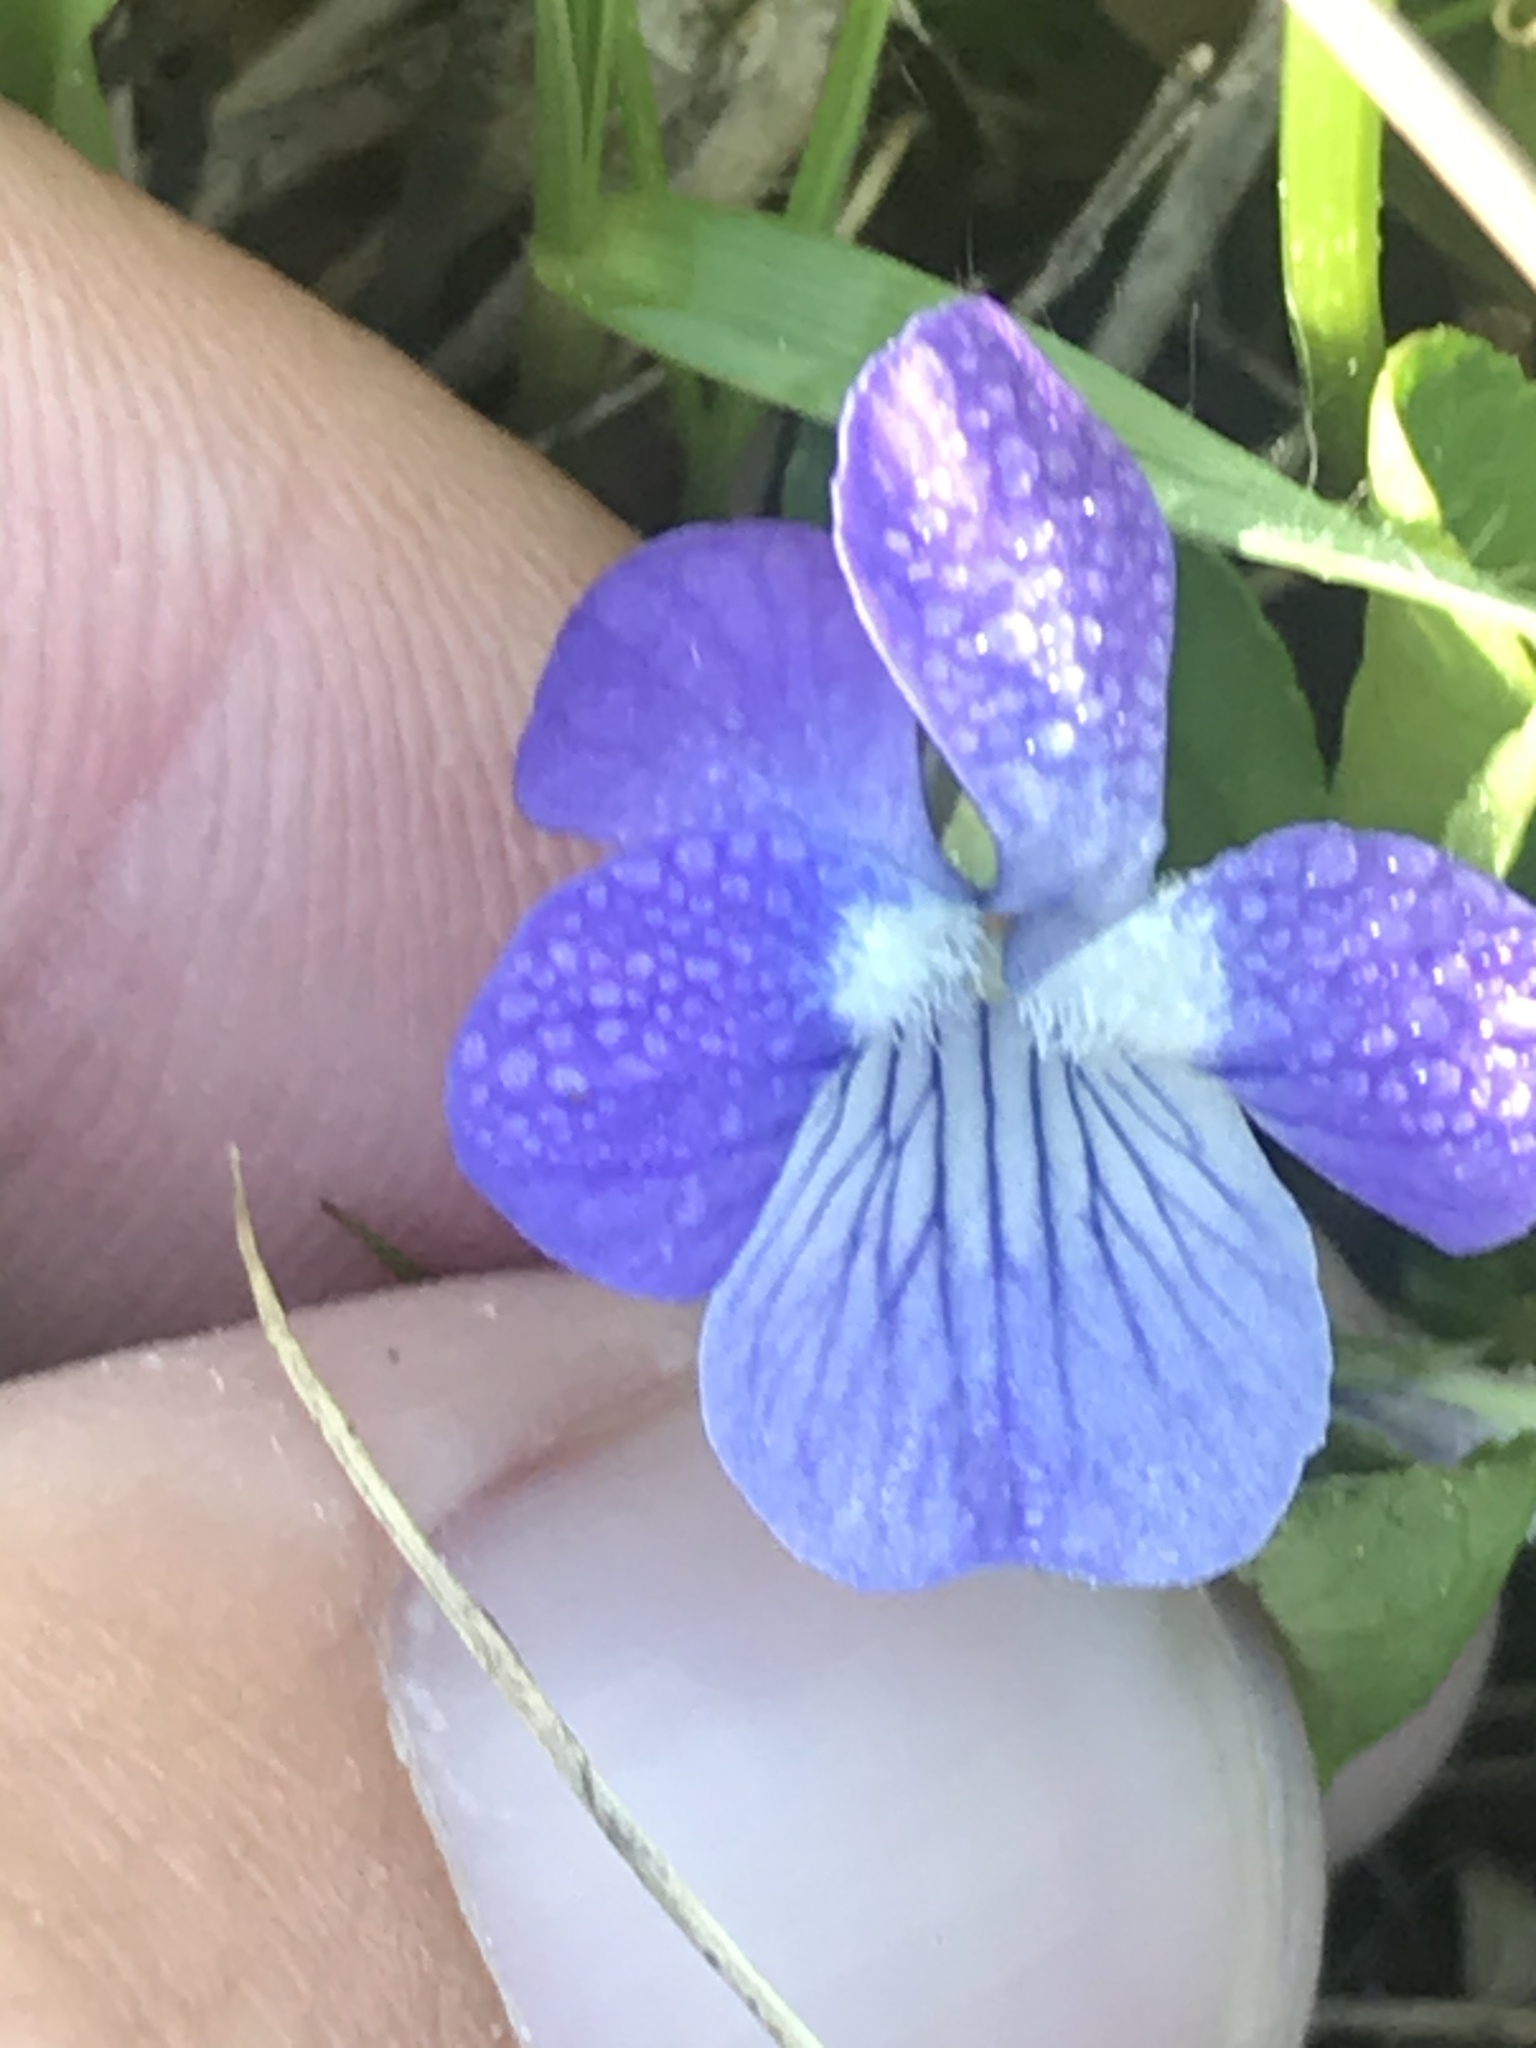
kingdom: Plantae
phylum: Tracheophyta
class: Magnoliopsida
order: Malpighiales
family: Violaceae
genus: Viola
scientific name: Viola adunca
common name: Sand violet
